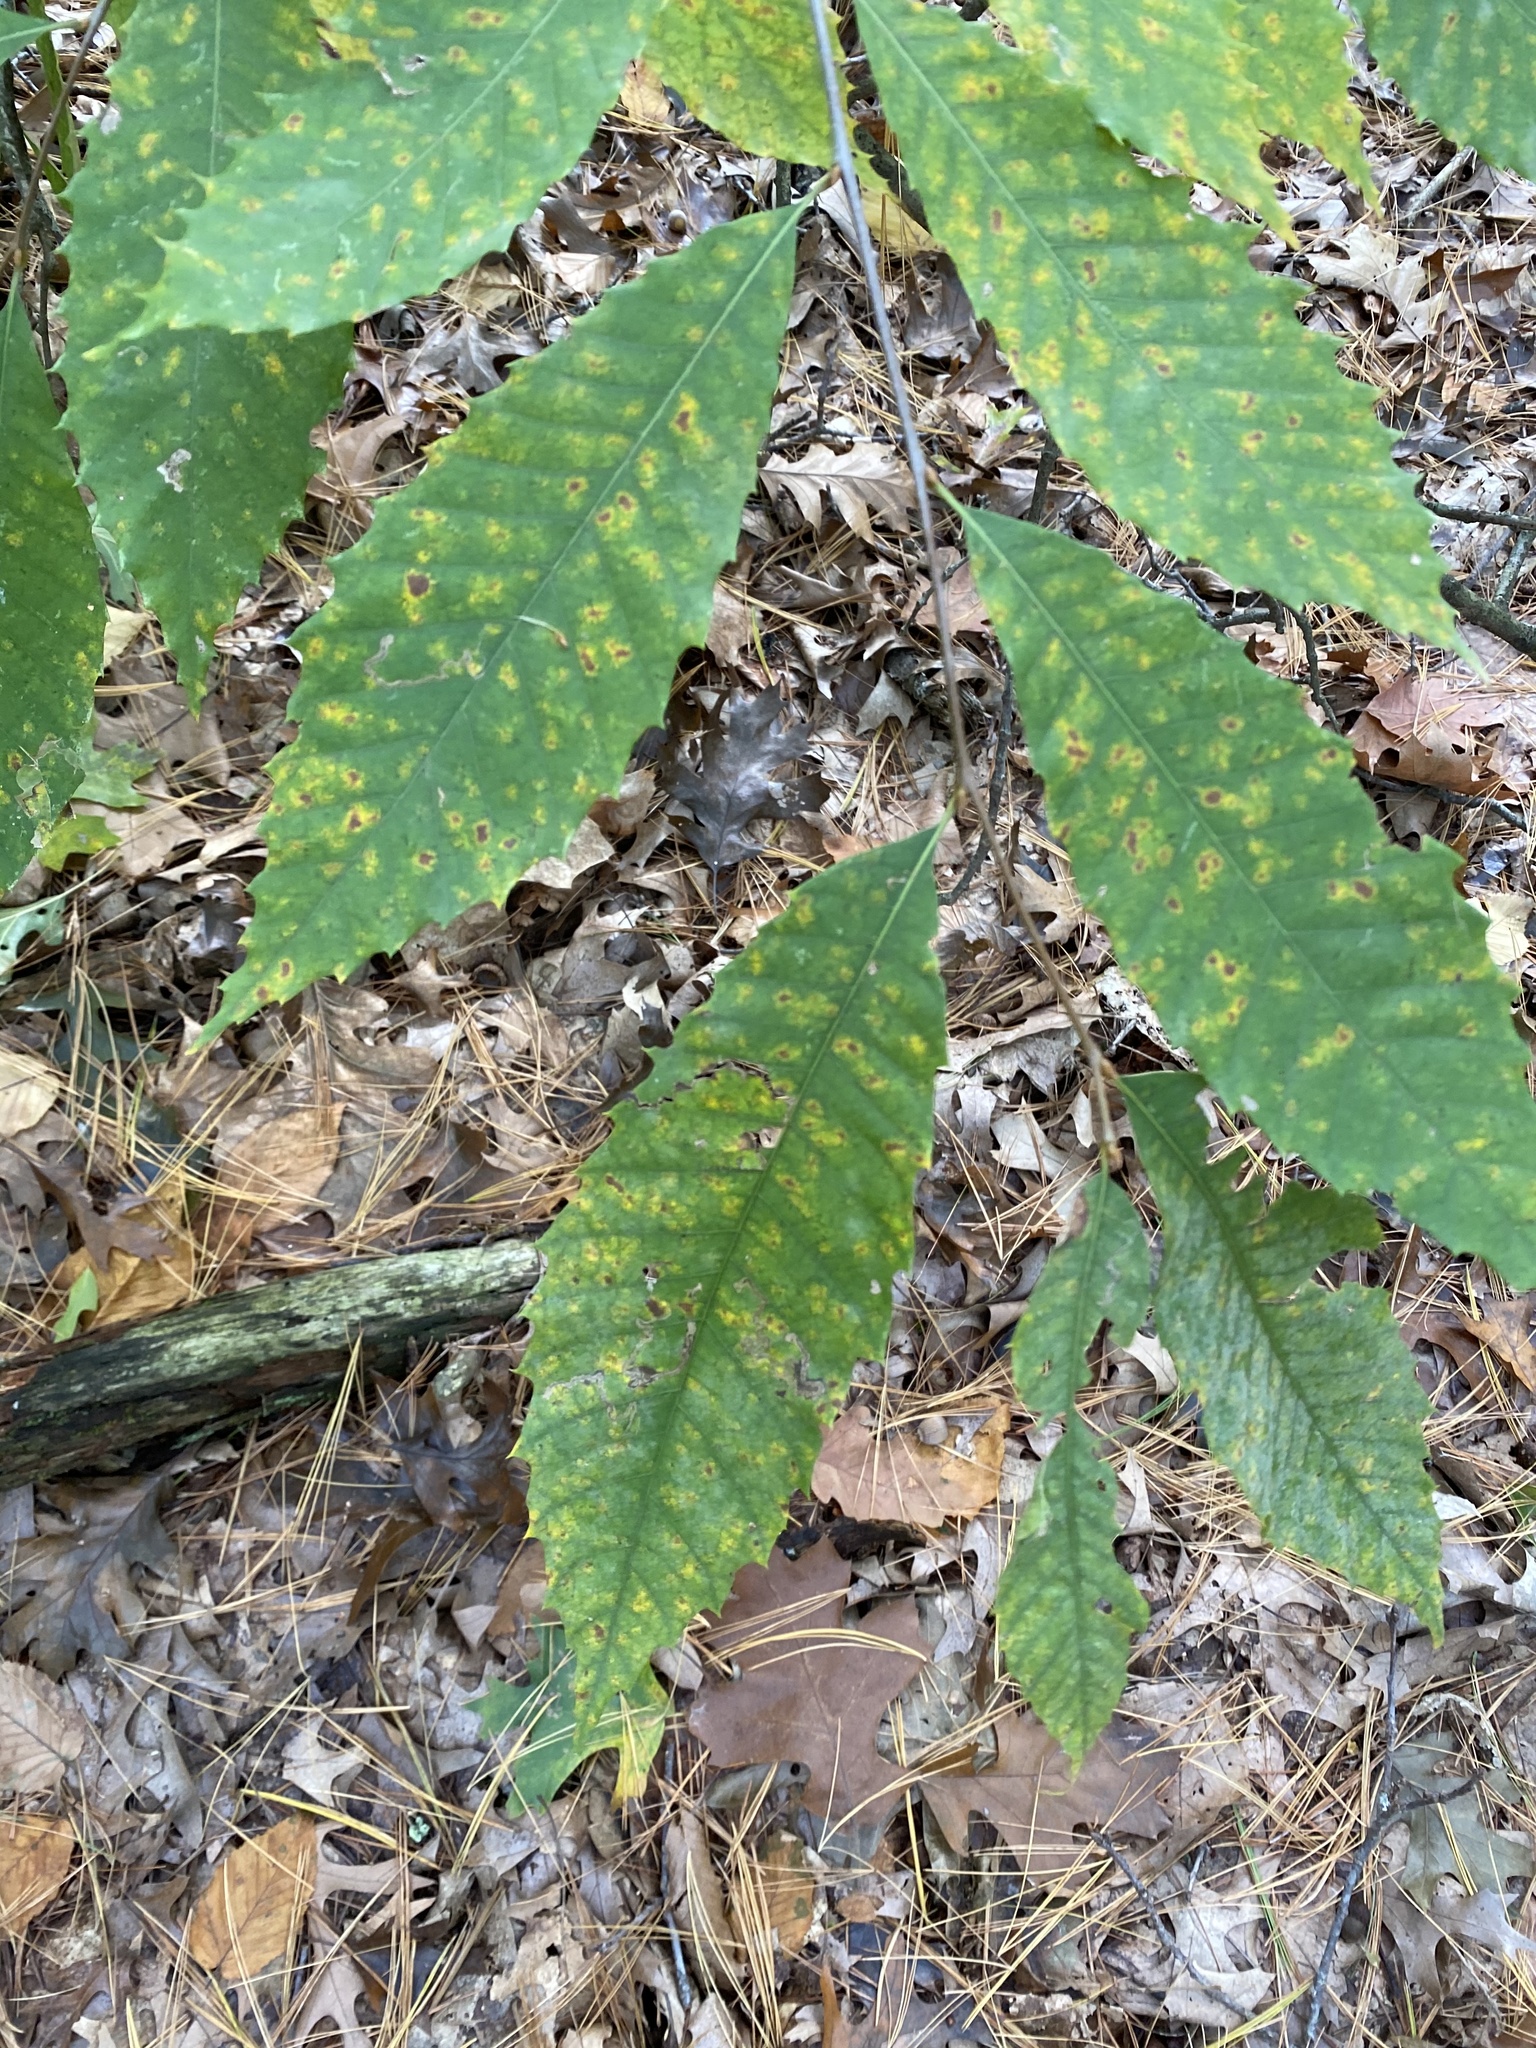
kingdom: Plantae
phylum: Tracheophyta
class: Magnoliopsida
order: Fagales
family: Fagaceae
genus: Castanea
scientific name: Castanea dentata
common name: American chestnut
